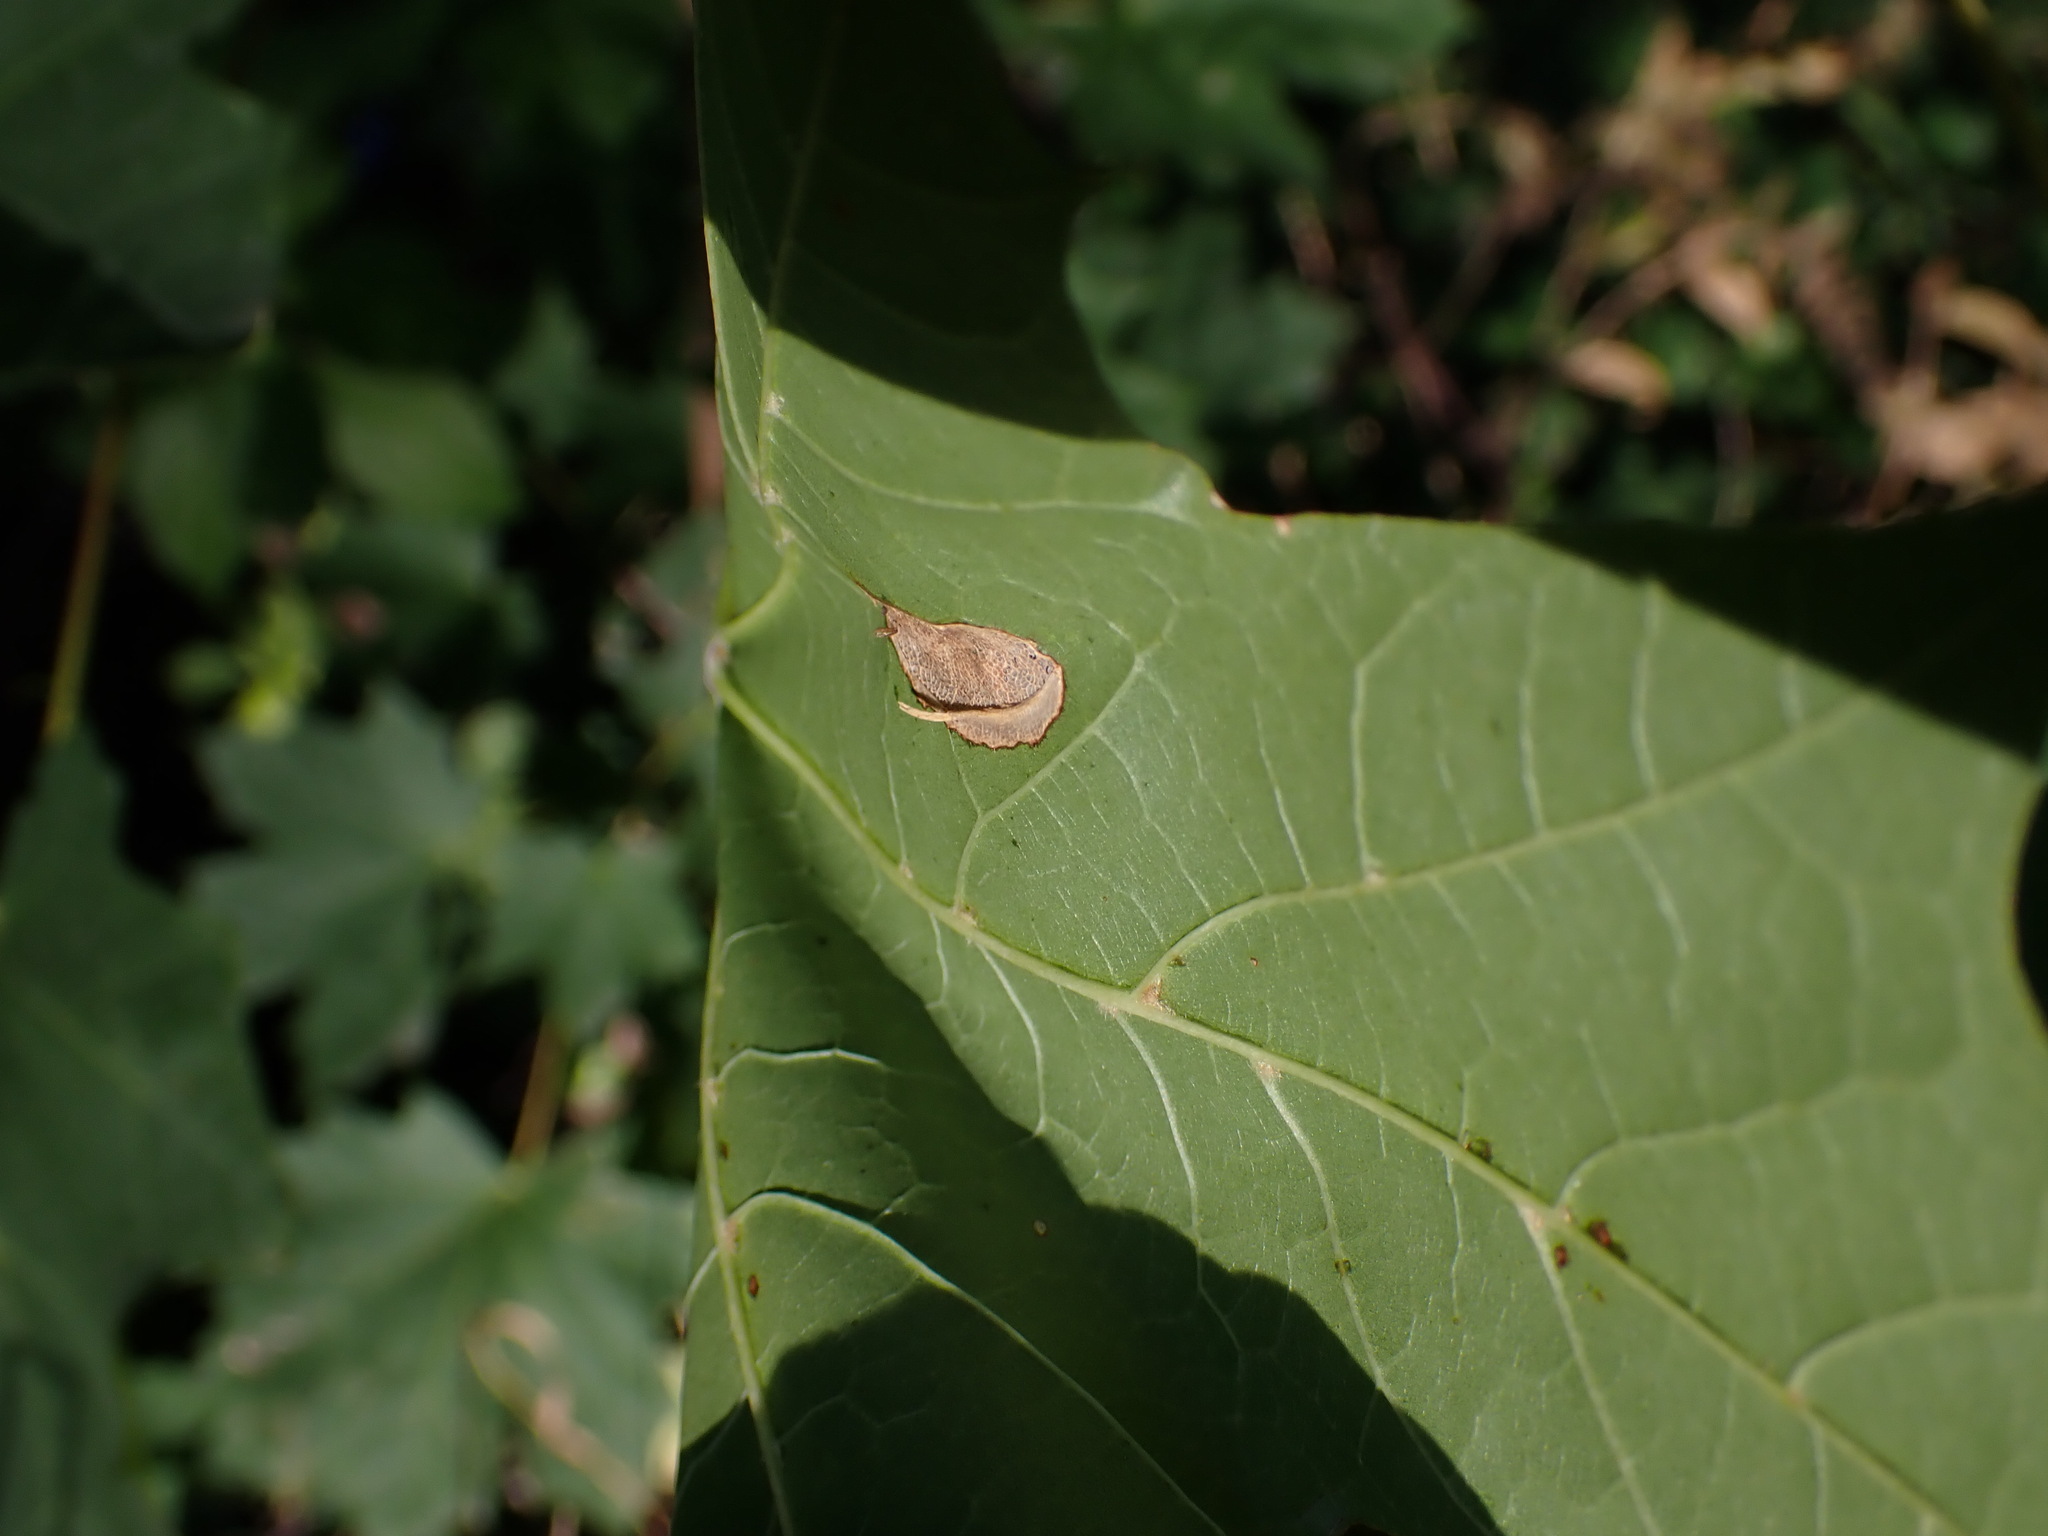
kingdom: Animalia
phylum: Arthropoda
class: Insecta
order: Lepidoptera
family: Gracillariidae
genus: Phyllonorycter
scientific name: Phyllonorycter joannisi
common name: White-bodied midget
